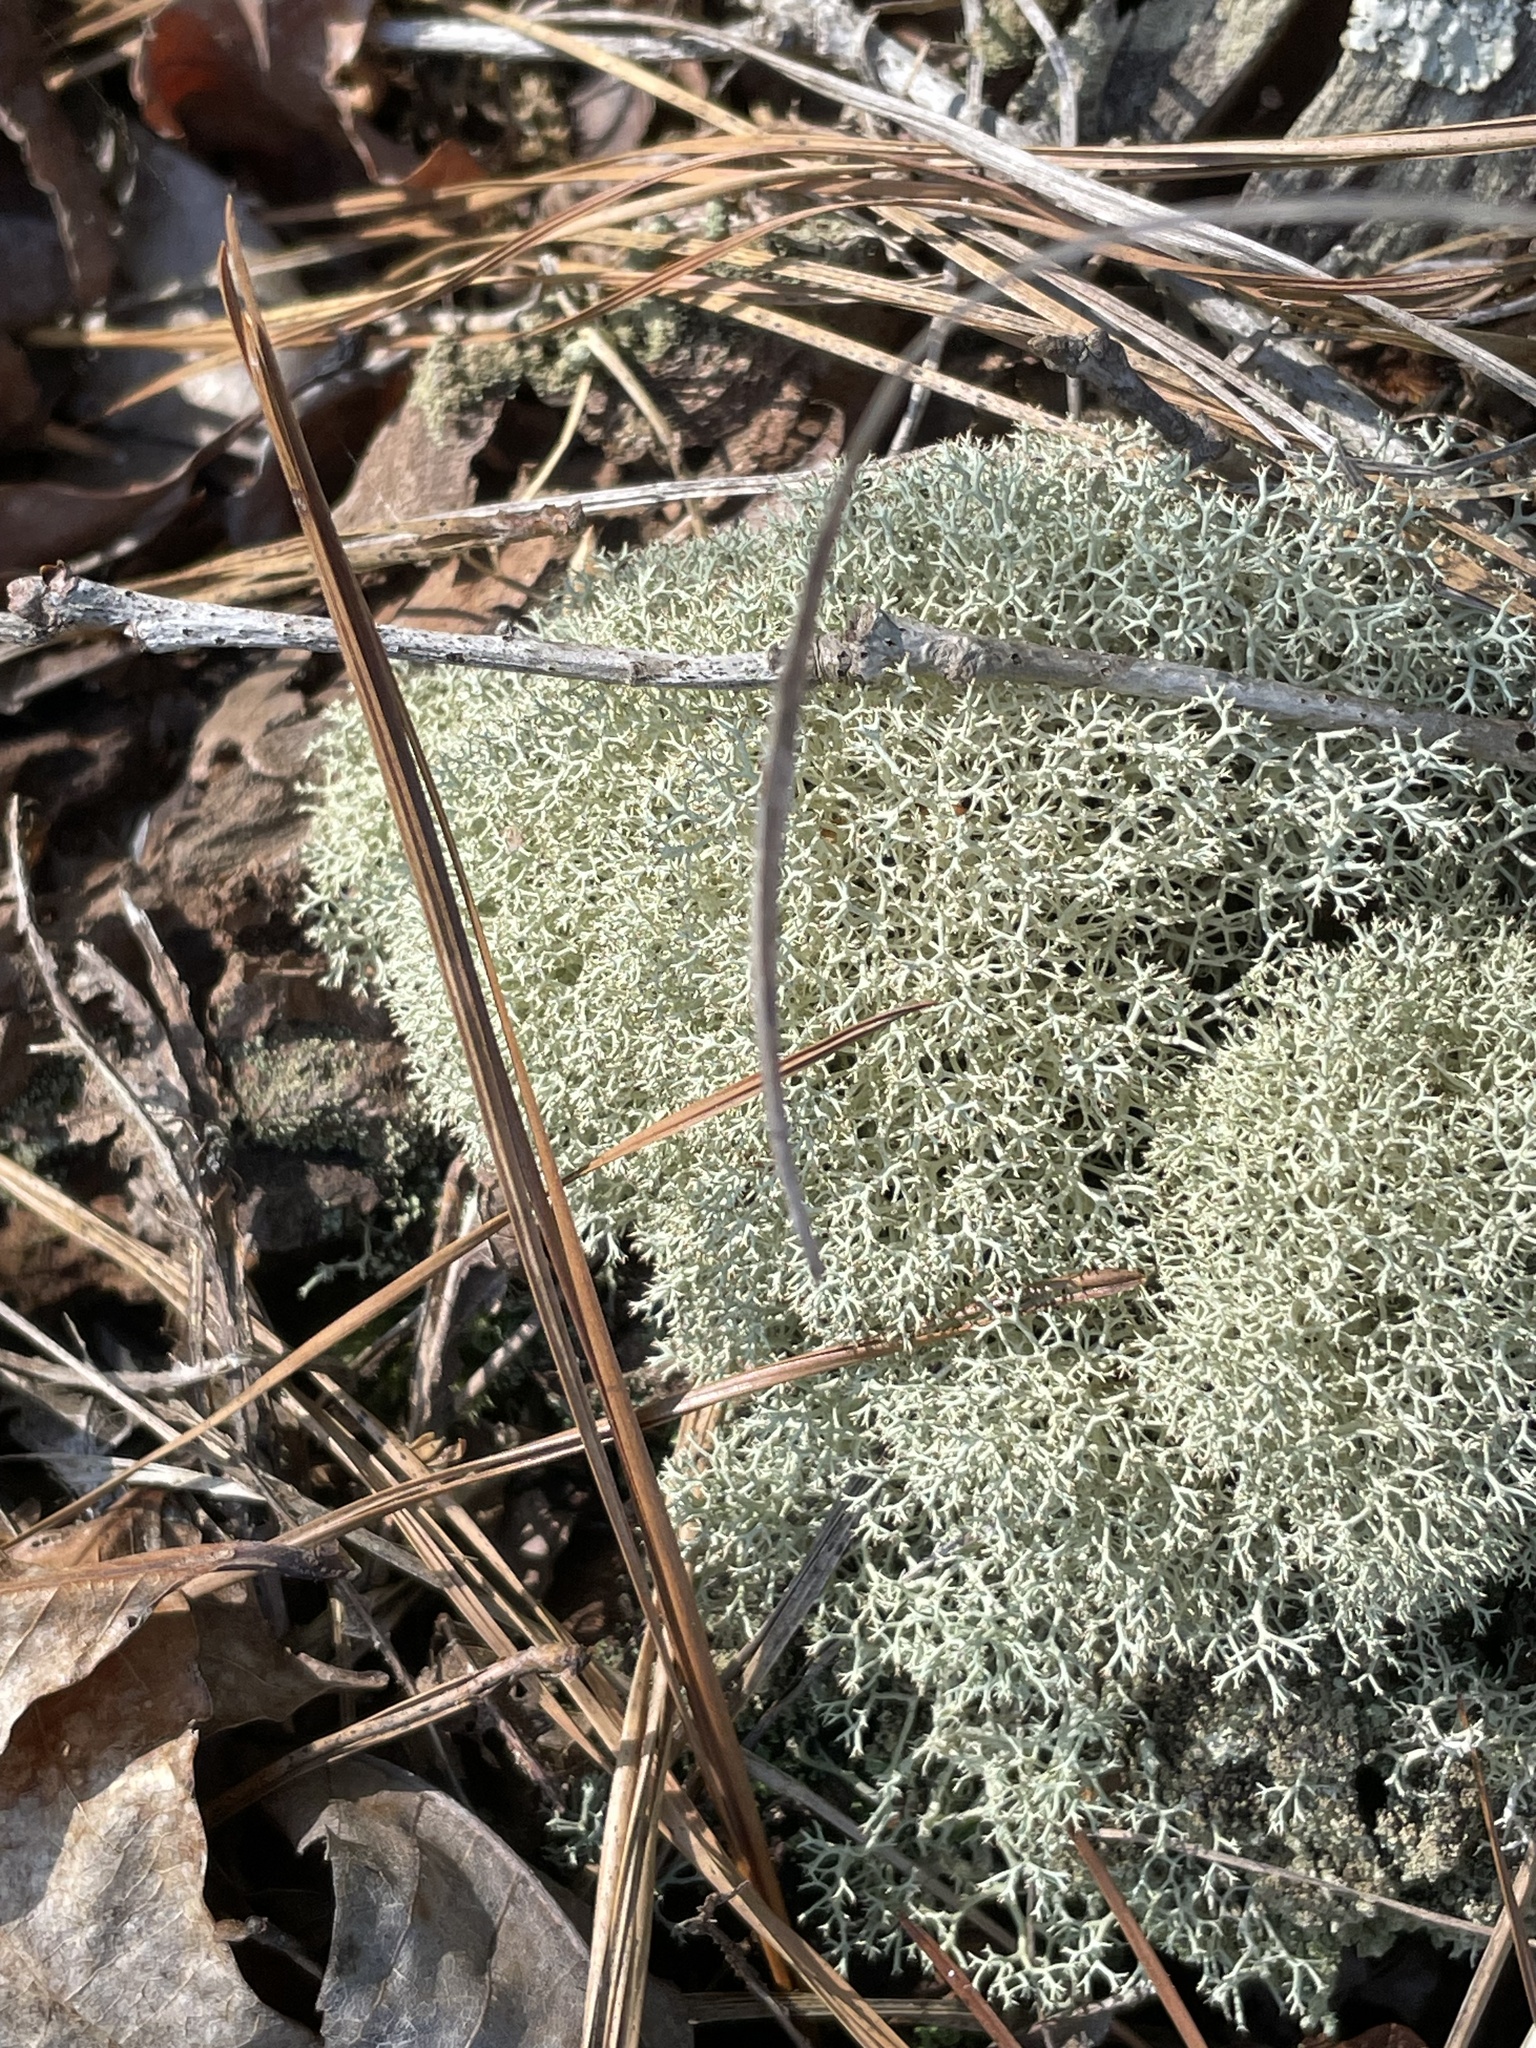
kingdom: Fungi
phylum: Ascomycota
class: Lecanoromycetes
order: Lecanorales
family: Cladoniaceae
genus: Cladonia
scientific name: Cladonia subtenuis
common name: Dixie reindeer lichen
